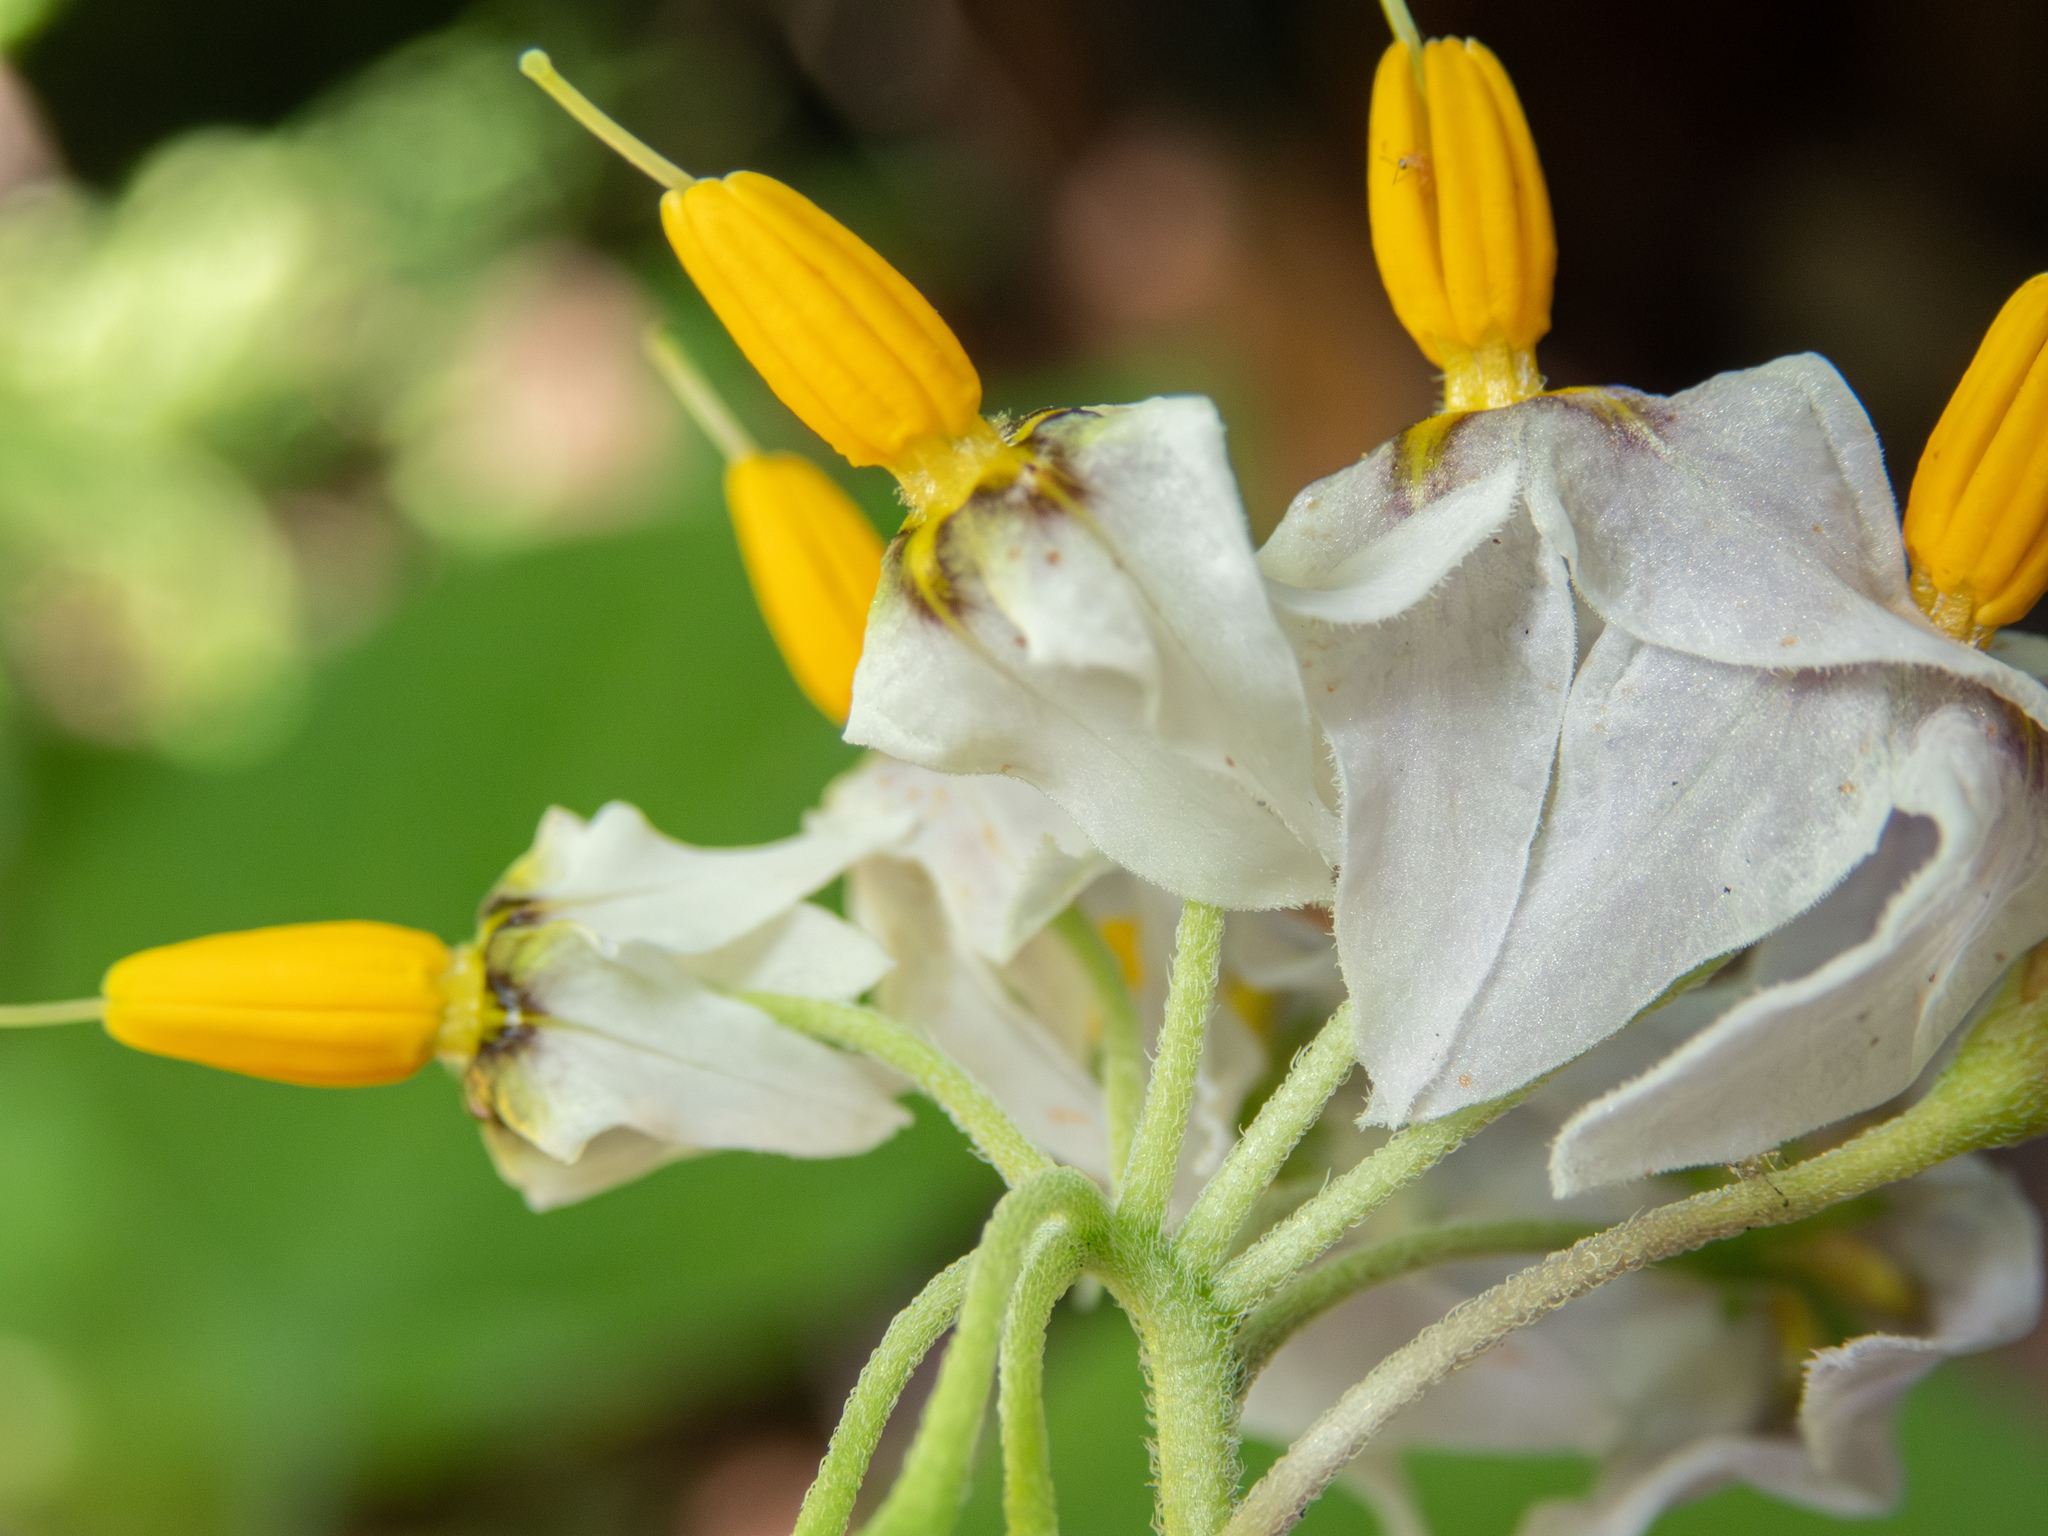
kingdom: Plantae
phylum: Tracheophyta
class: Magnoliopsida
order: Solanales
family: Solanaceae
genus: Solanum
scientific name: Solanum douglasii
